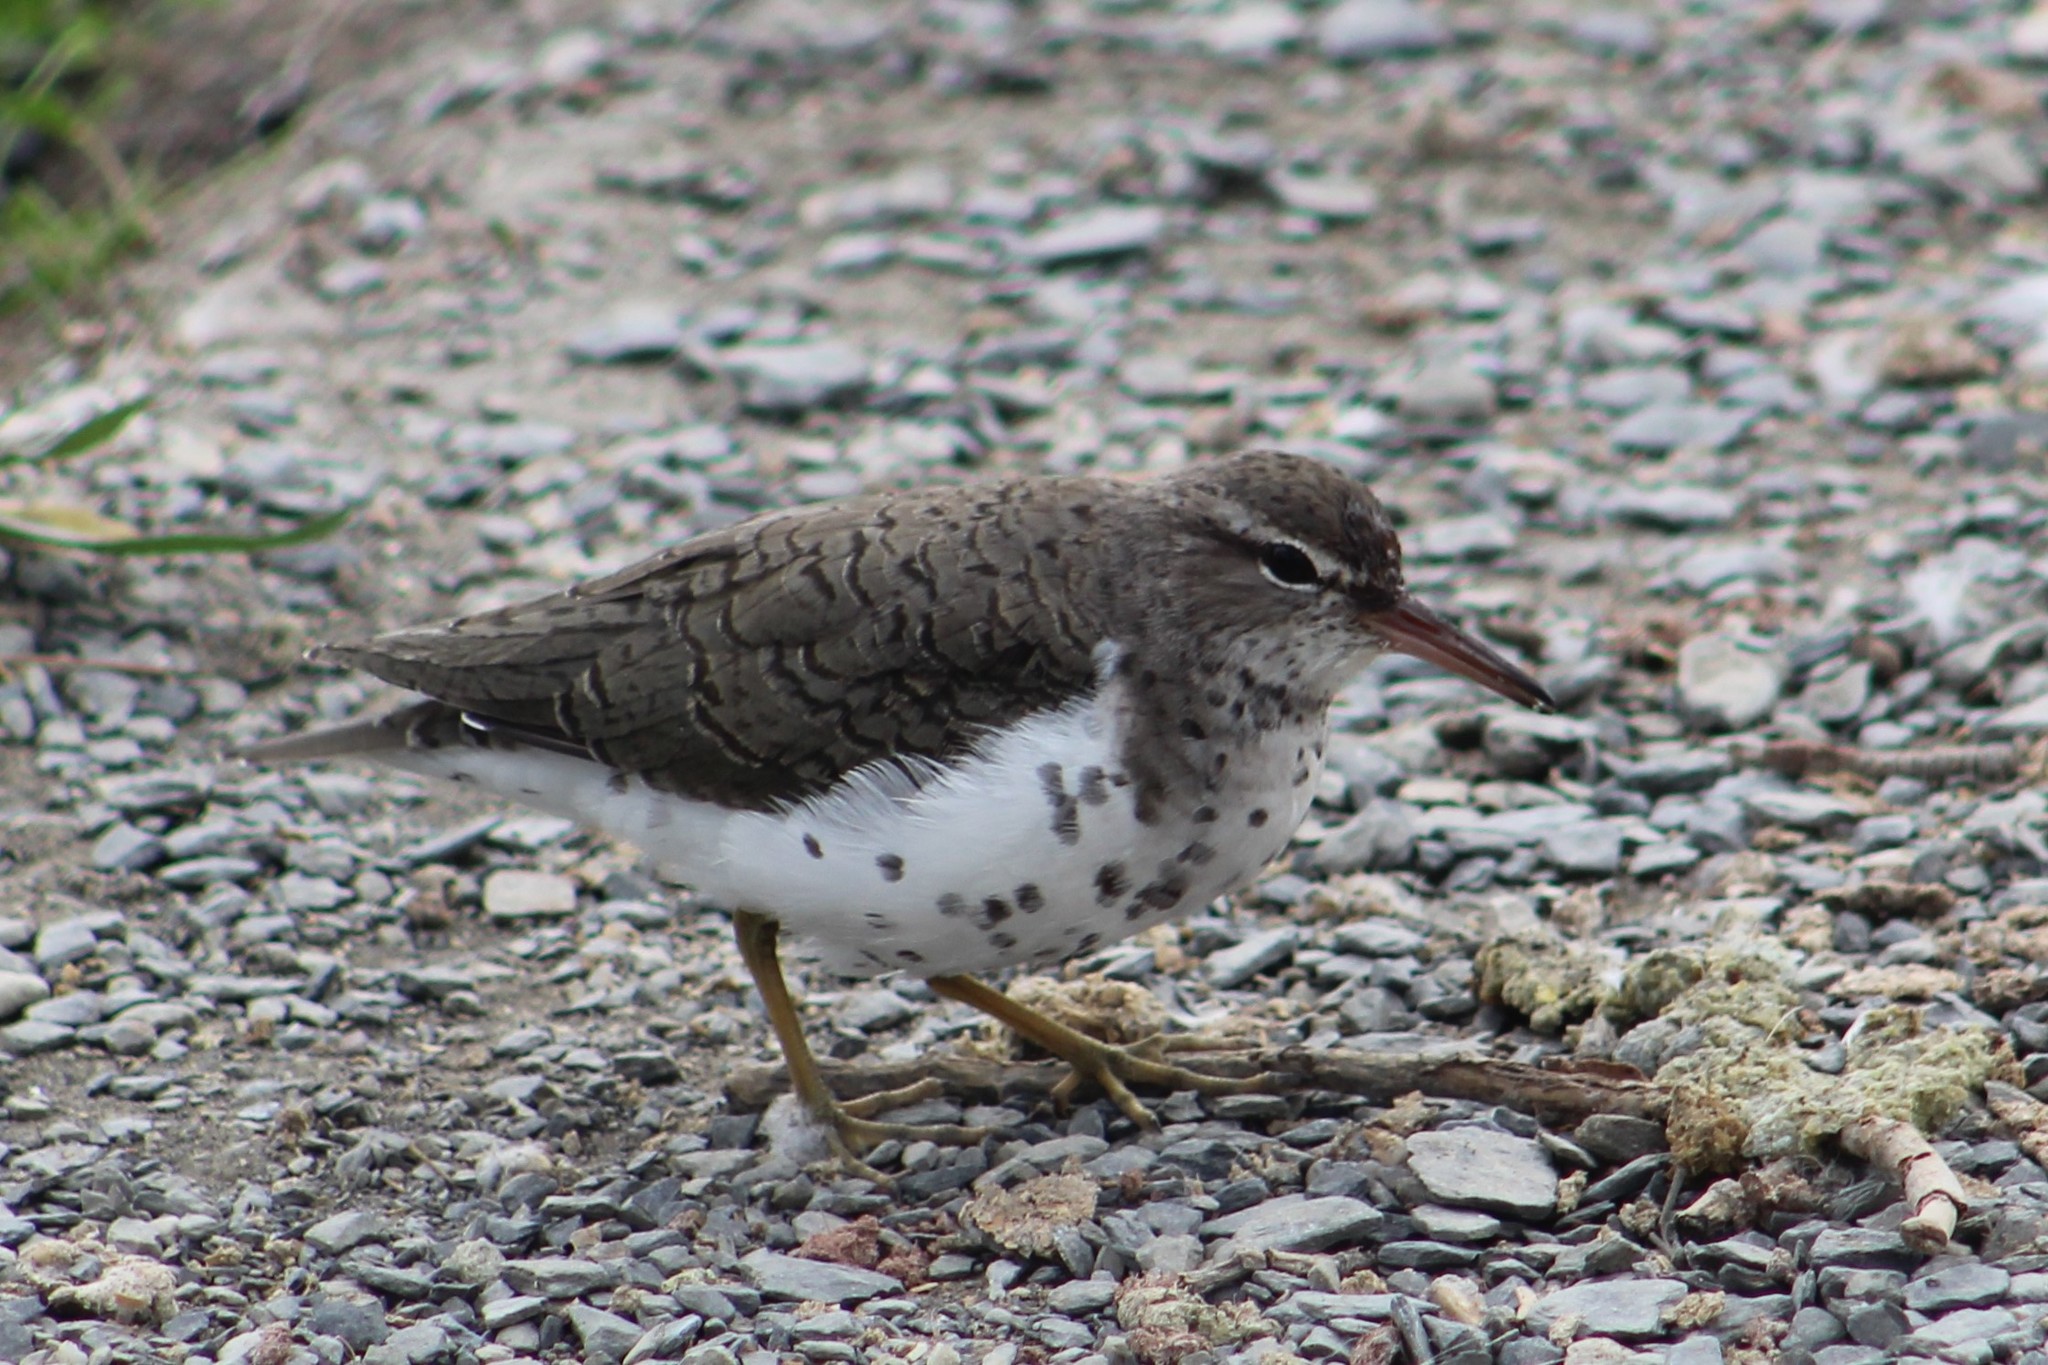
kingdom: Animalia
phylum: Chordata
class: Aves
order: Charadriiformes
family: Scolopacidae
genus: Actitis
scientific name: Actitis macularius
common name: Spotted sandpiper
